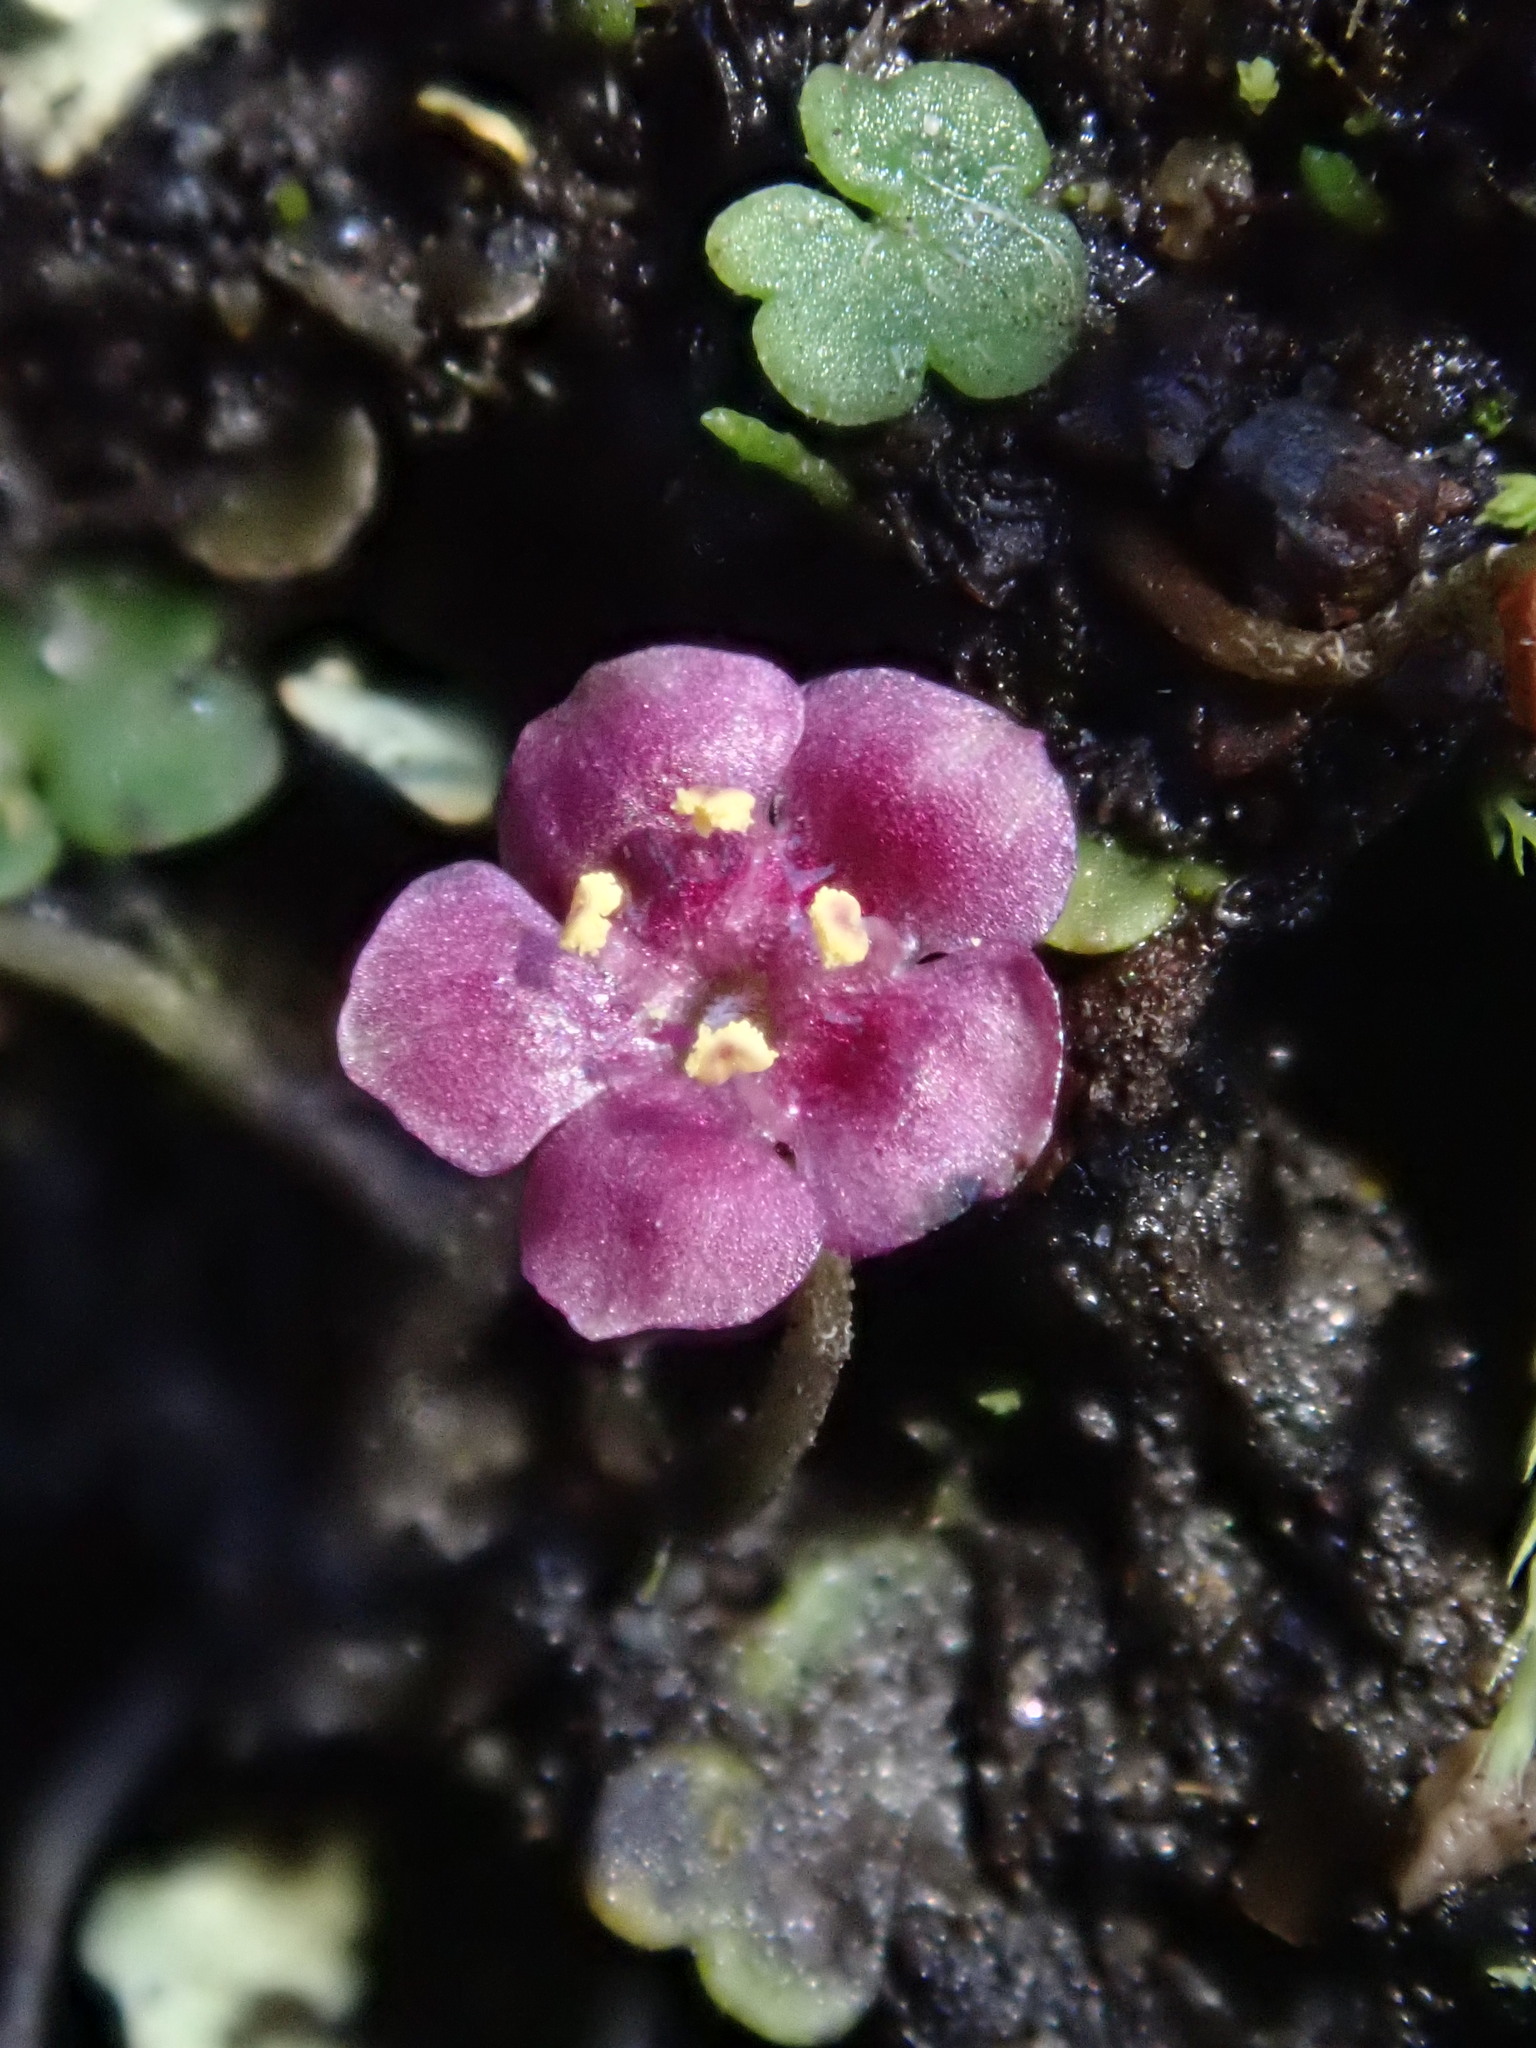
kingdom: Plantae
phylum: Tracheophyta
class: Magnoliopsida
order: Lamiales
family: Plantaginaceae
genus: Sibthorpia
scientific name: Sibthorpia repens
